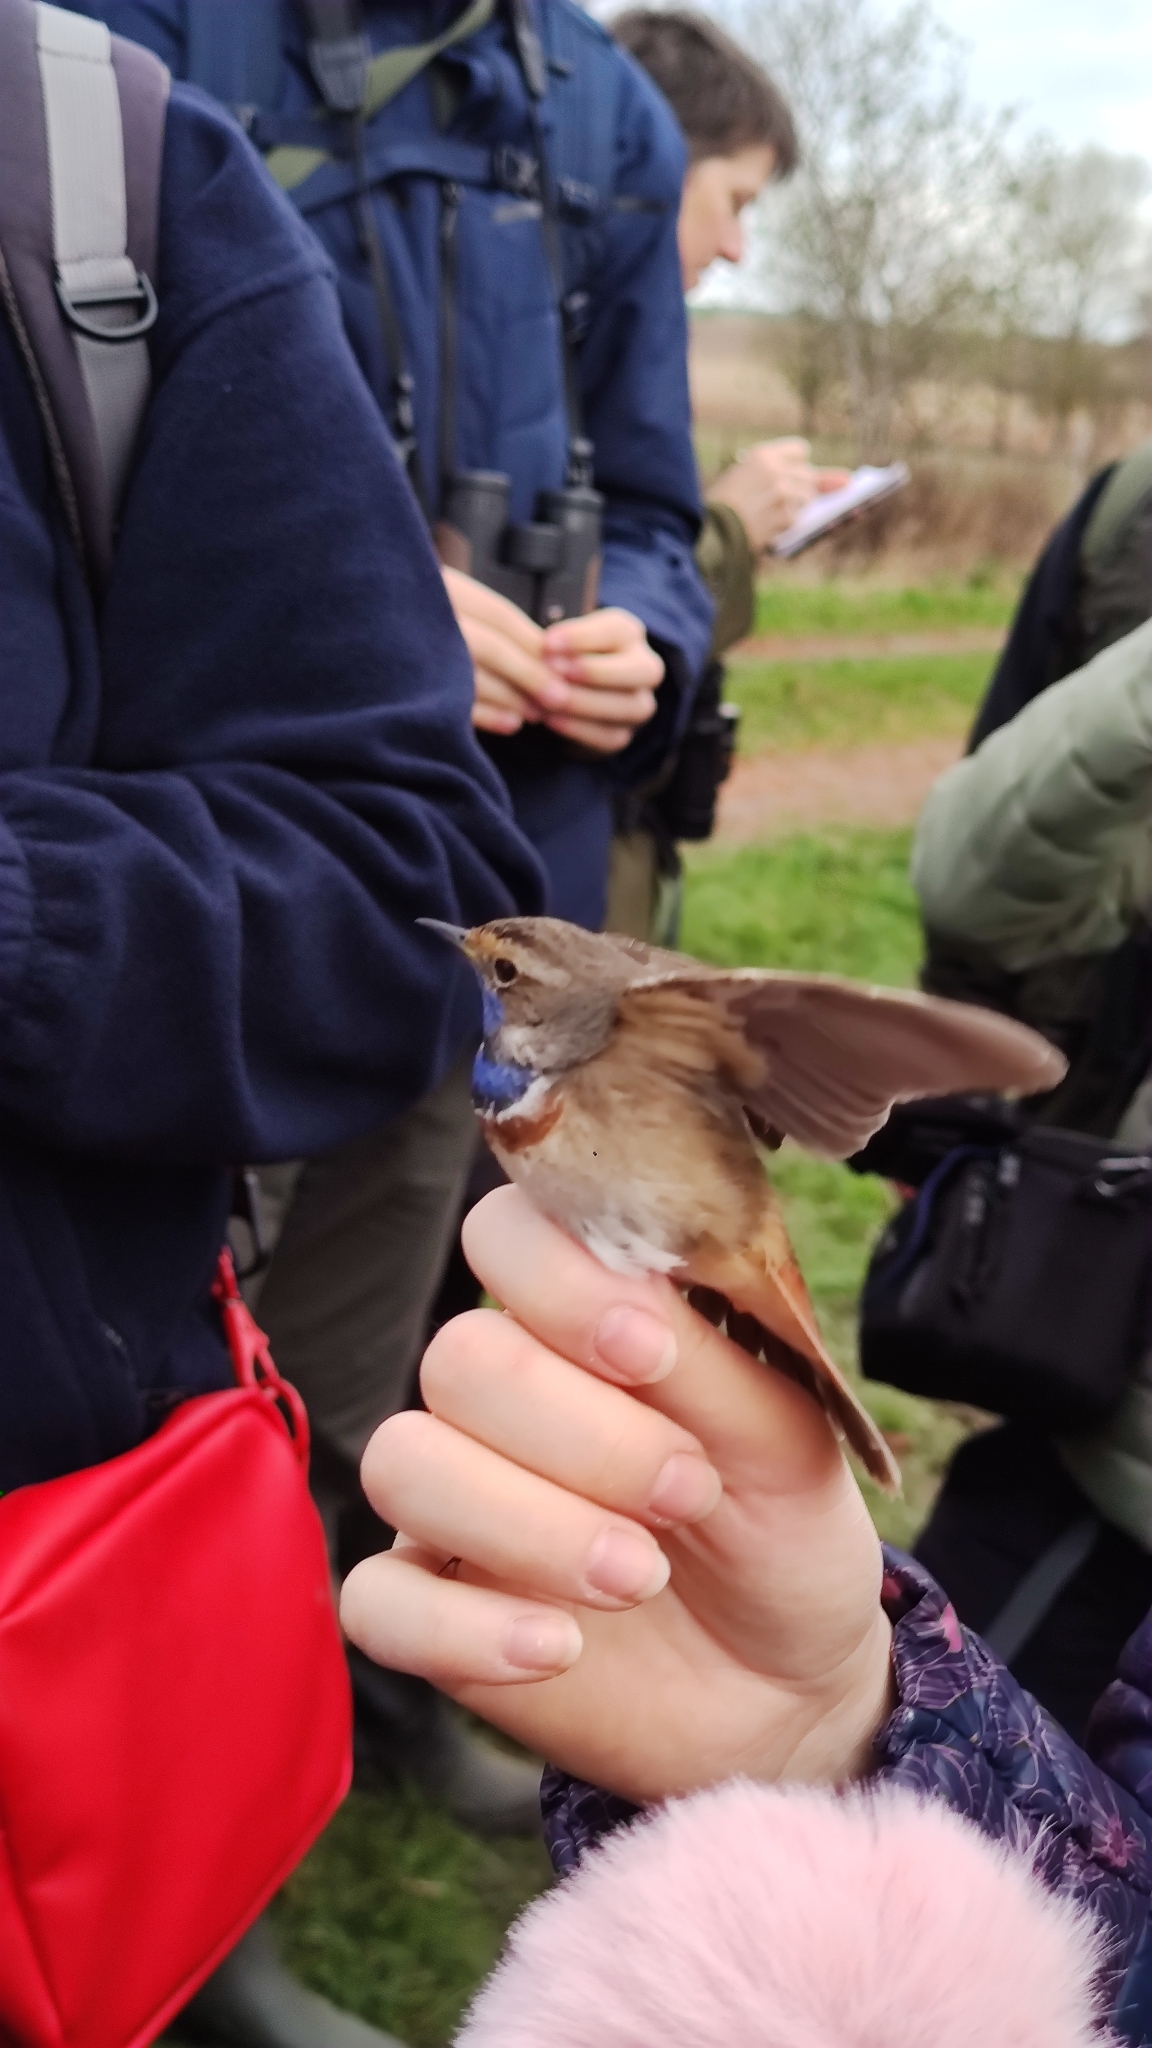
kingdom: Animalia
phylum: Chordata
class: Aves
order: Passeriformes
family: Muscicapidae
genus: Luscinia
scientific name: Luscinia svecica
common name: Bluethroat
